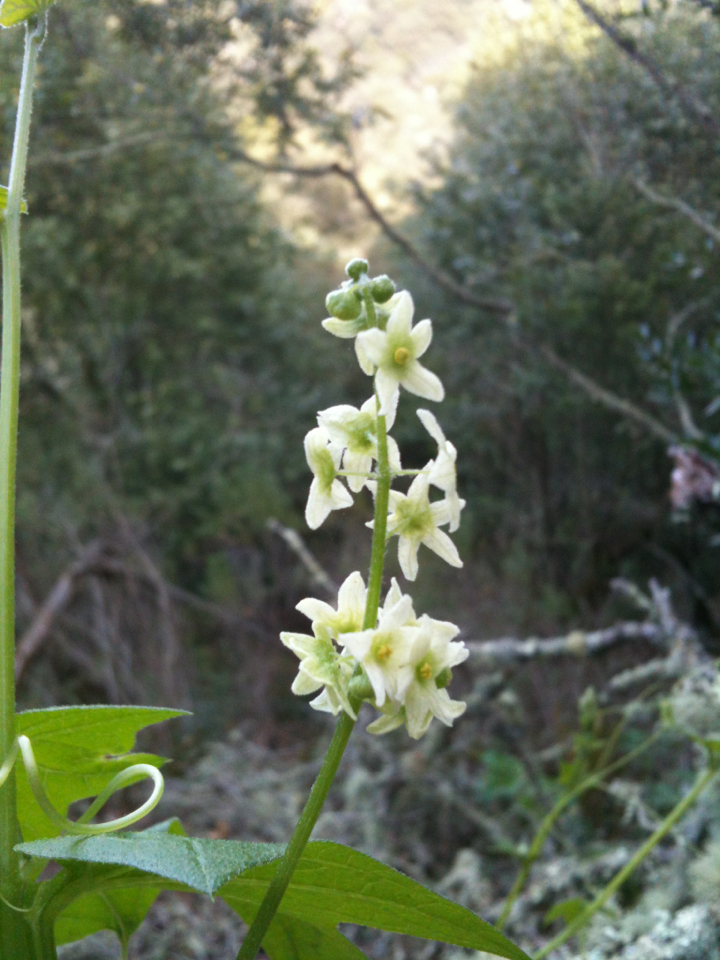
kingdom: Plantae
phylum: Tracheophyta
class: Magnoliopsida
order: Cucurbitales
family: Cucurbitaceae
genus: Marah
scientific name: Marah fabacea
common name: California manroot
